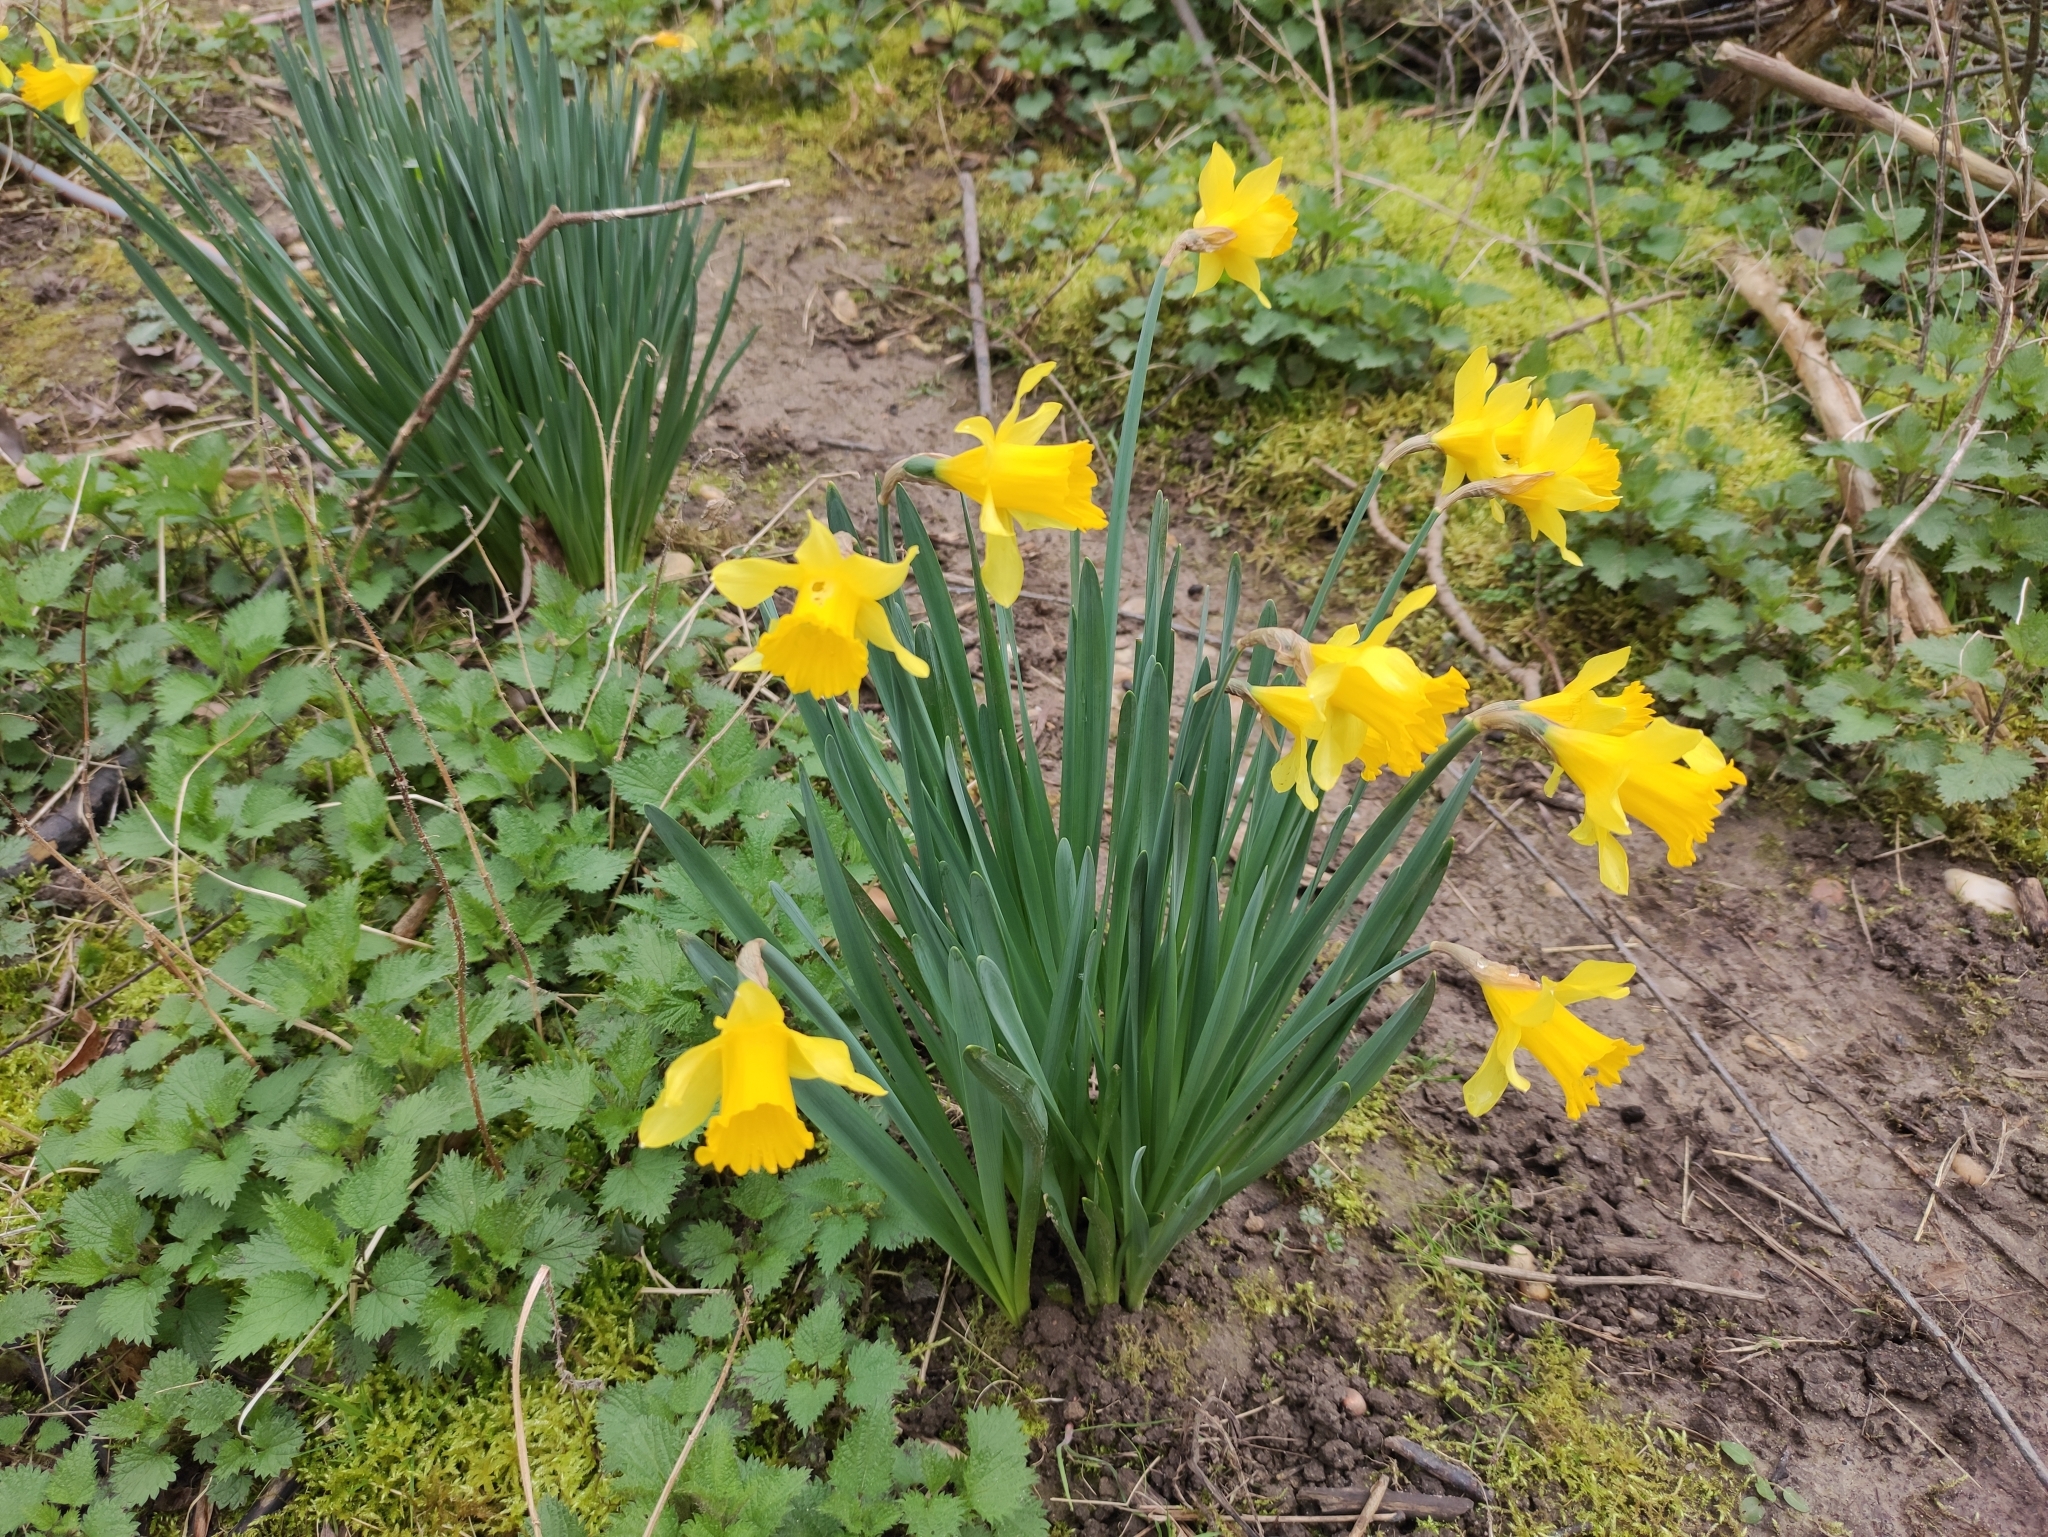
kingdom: Plantae
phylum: Tracheophyta
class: Liliopsida
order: Asparagales
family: Amaryllidaceae
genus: Narcissus
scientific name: Narcissus pseudonarcissus
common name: Daffodil
